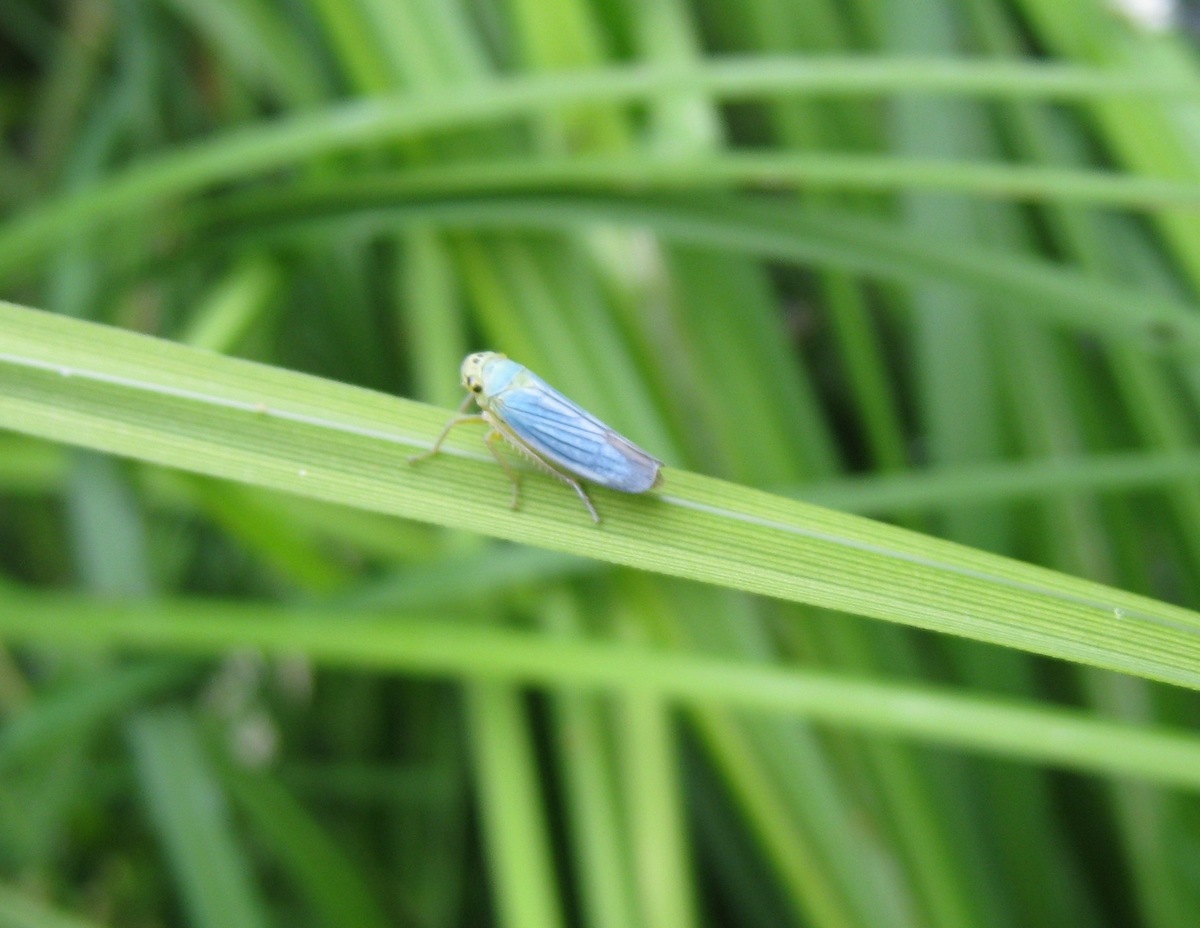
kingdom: Animalia
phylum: Arthropoda
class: Insecta
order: Hemiptera
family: Cicadellidae
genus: Cicadella
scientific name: Cicadella viridis
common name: Leafhopper
